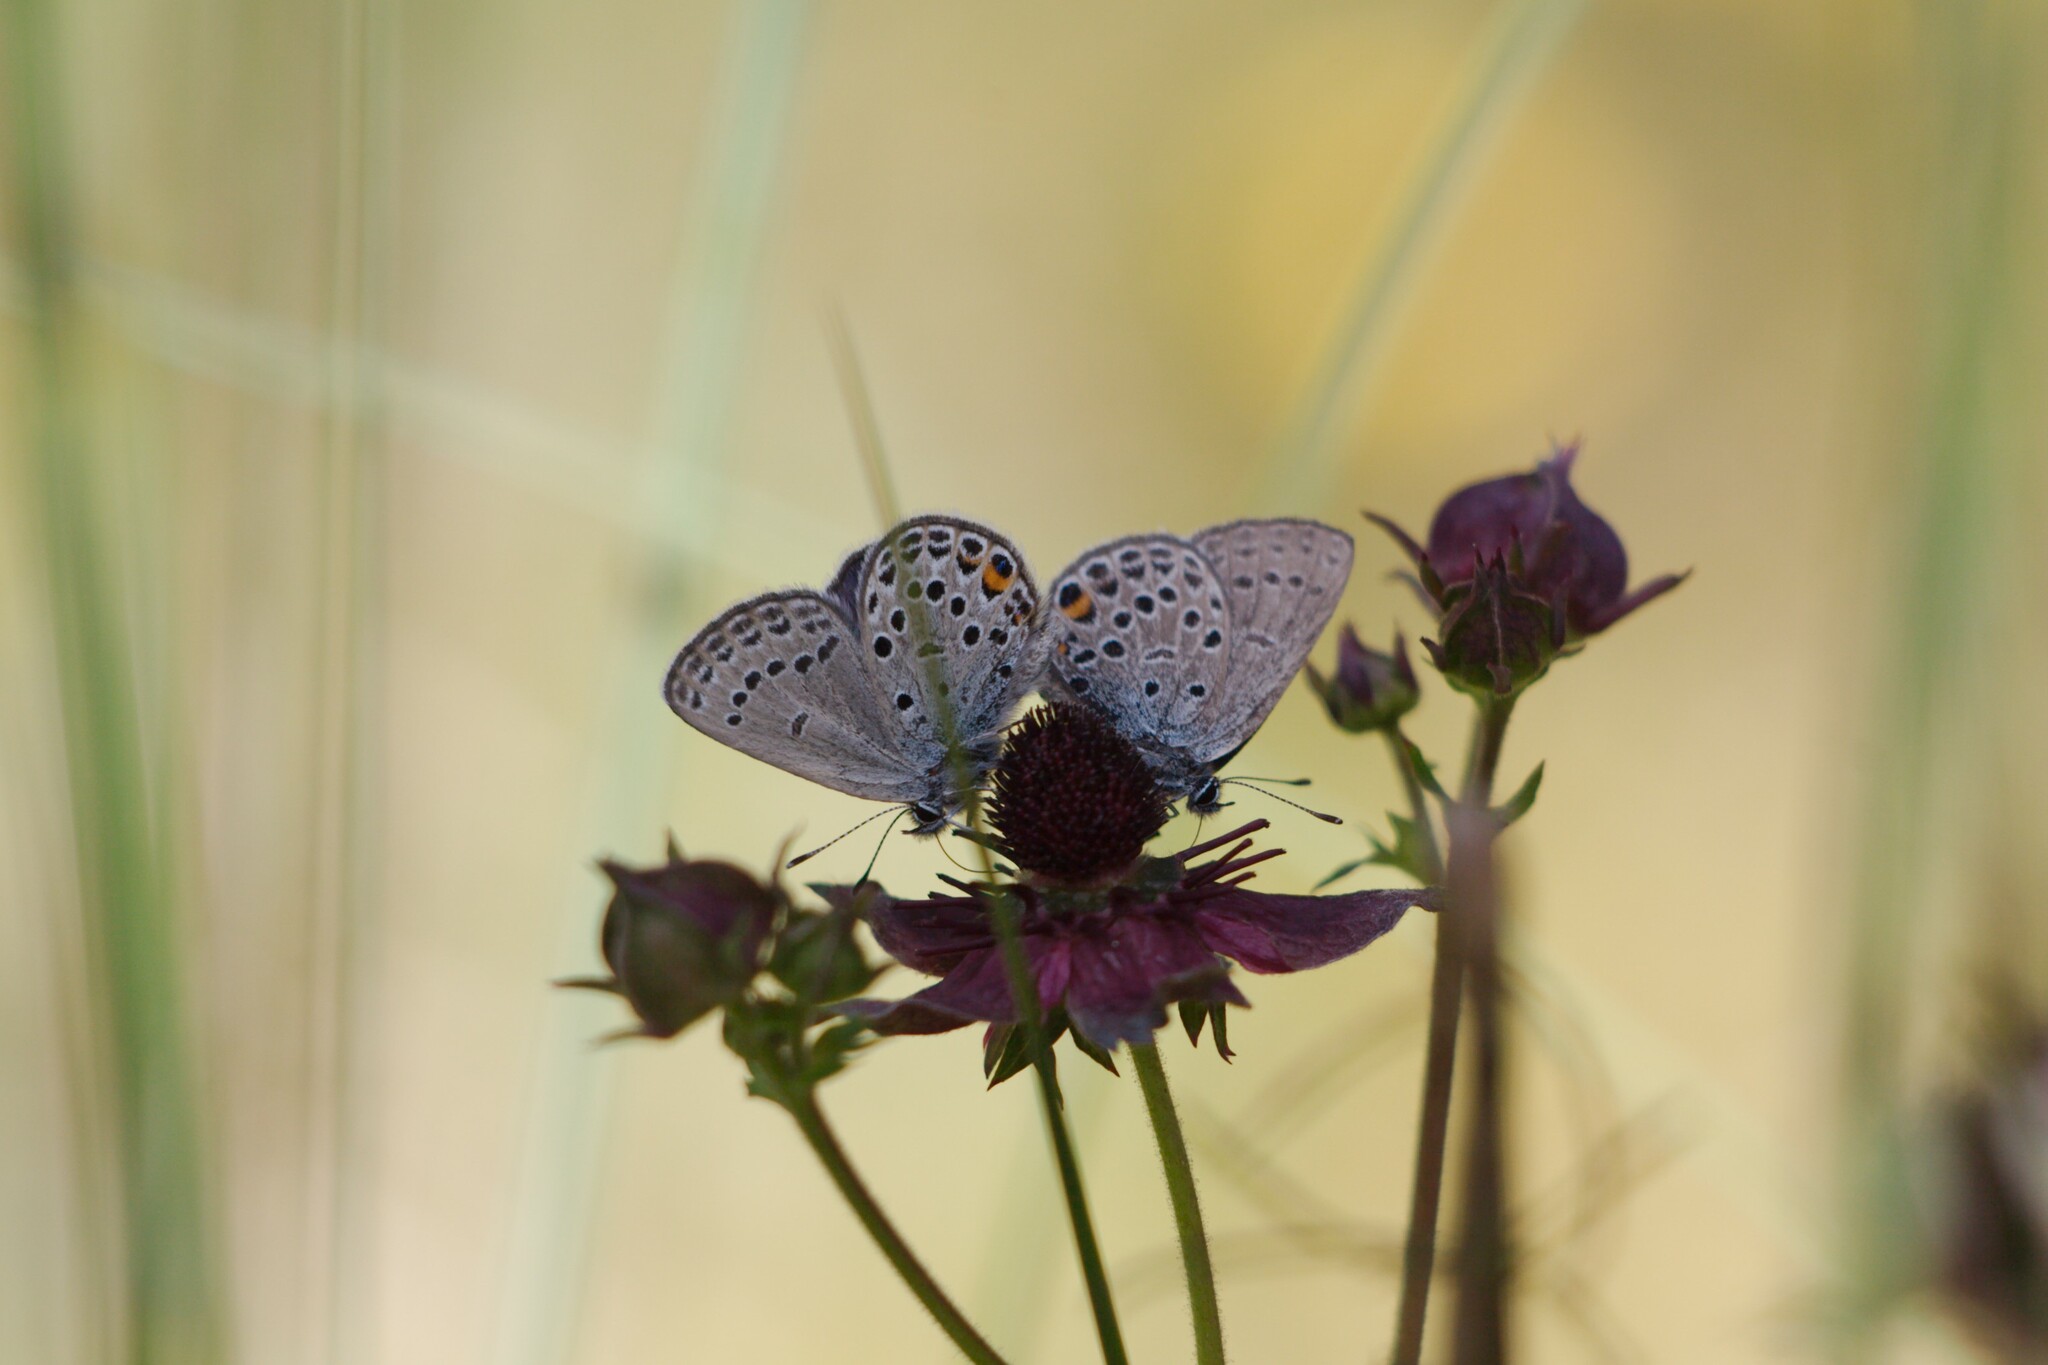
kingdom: Animalia
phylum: Arthropoda
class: Insecta
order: Lepidoptera
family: Lycaenidae
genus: Vacciniina
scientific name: Vacciniina optilete
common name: Cranberry blue
